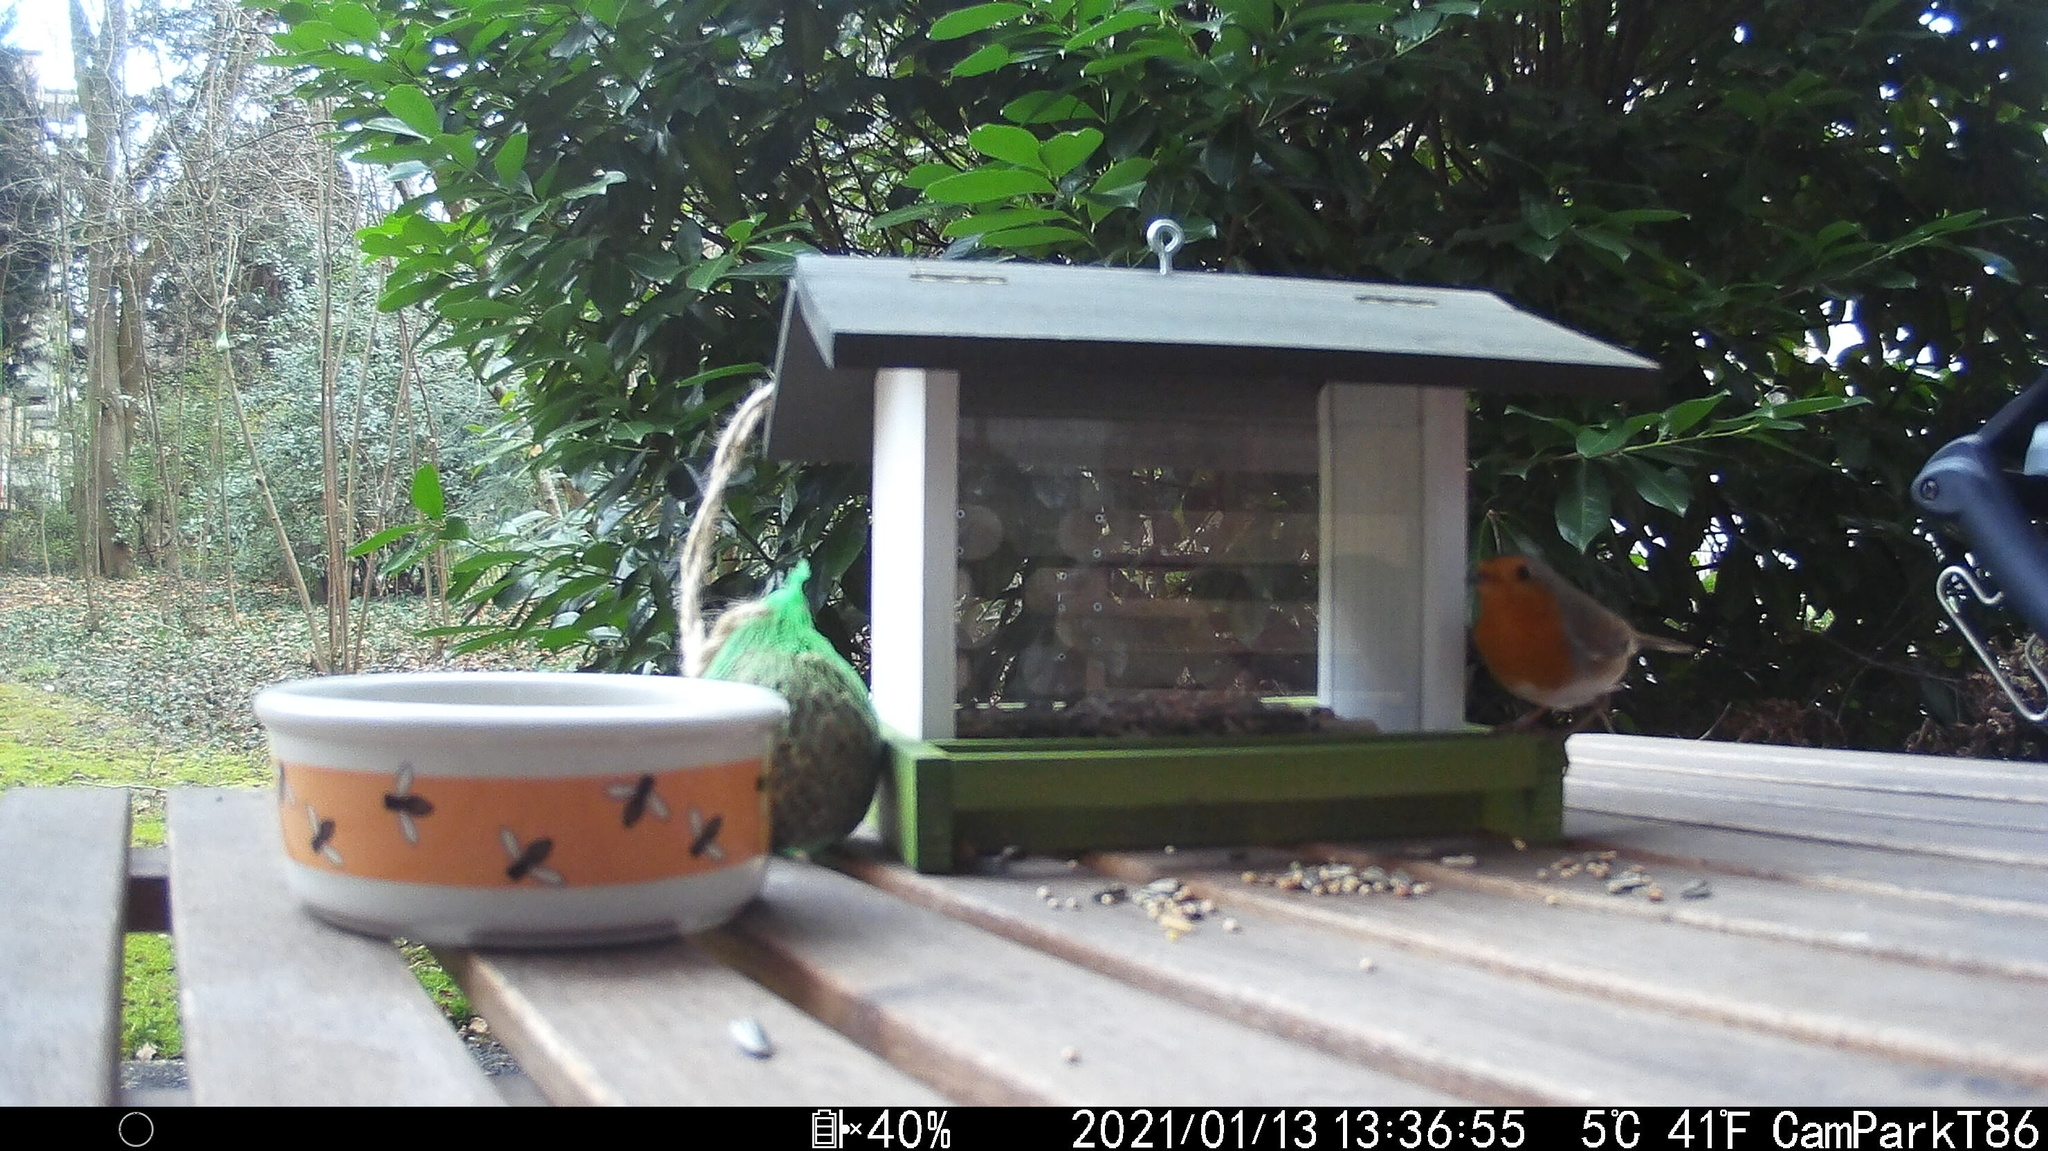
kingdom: Animalia
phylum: Chordata
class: Aves
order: Passeriformes
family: Muscicapidae
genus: Erithacus
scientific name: Erithacus rubecula
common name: European robin
